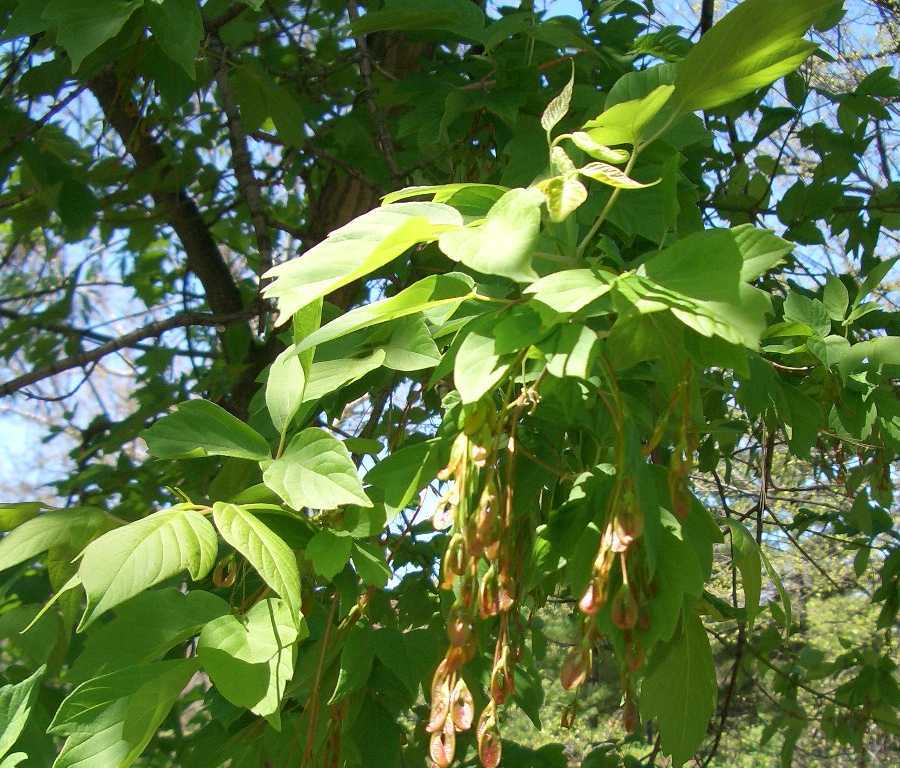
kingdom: Plantae
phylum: Tracheophyta
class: Magnoliopsida
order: Sapindales
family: Sapindaceae
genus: Acer
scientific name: Acer negundo
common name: Ashleaf maple
